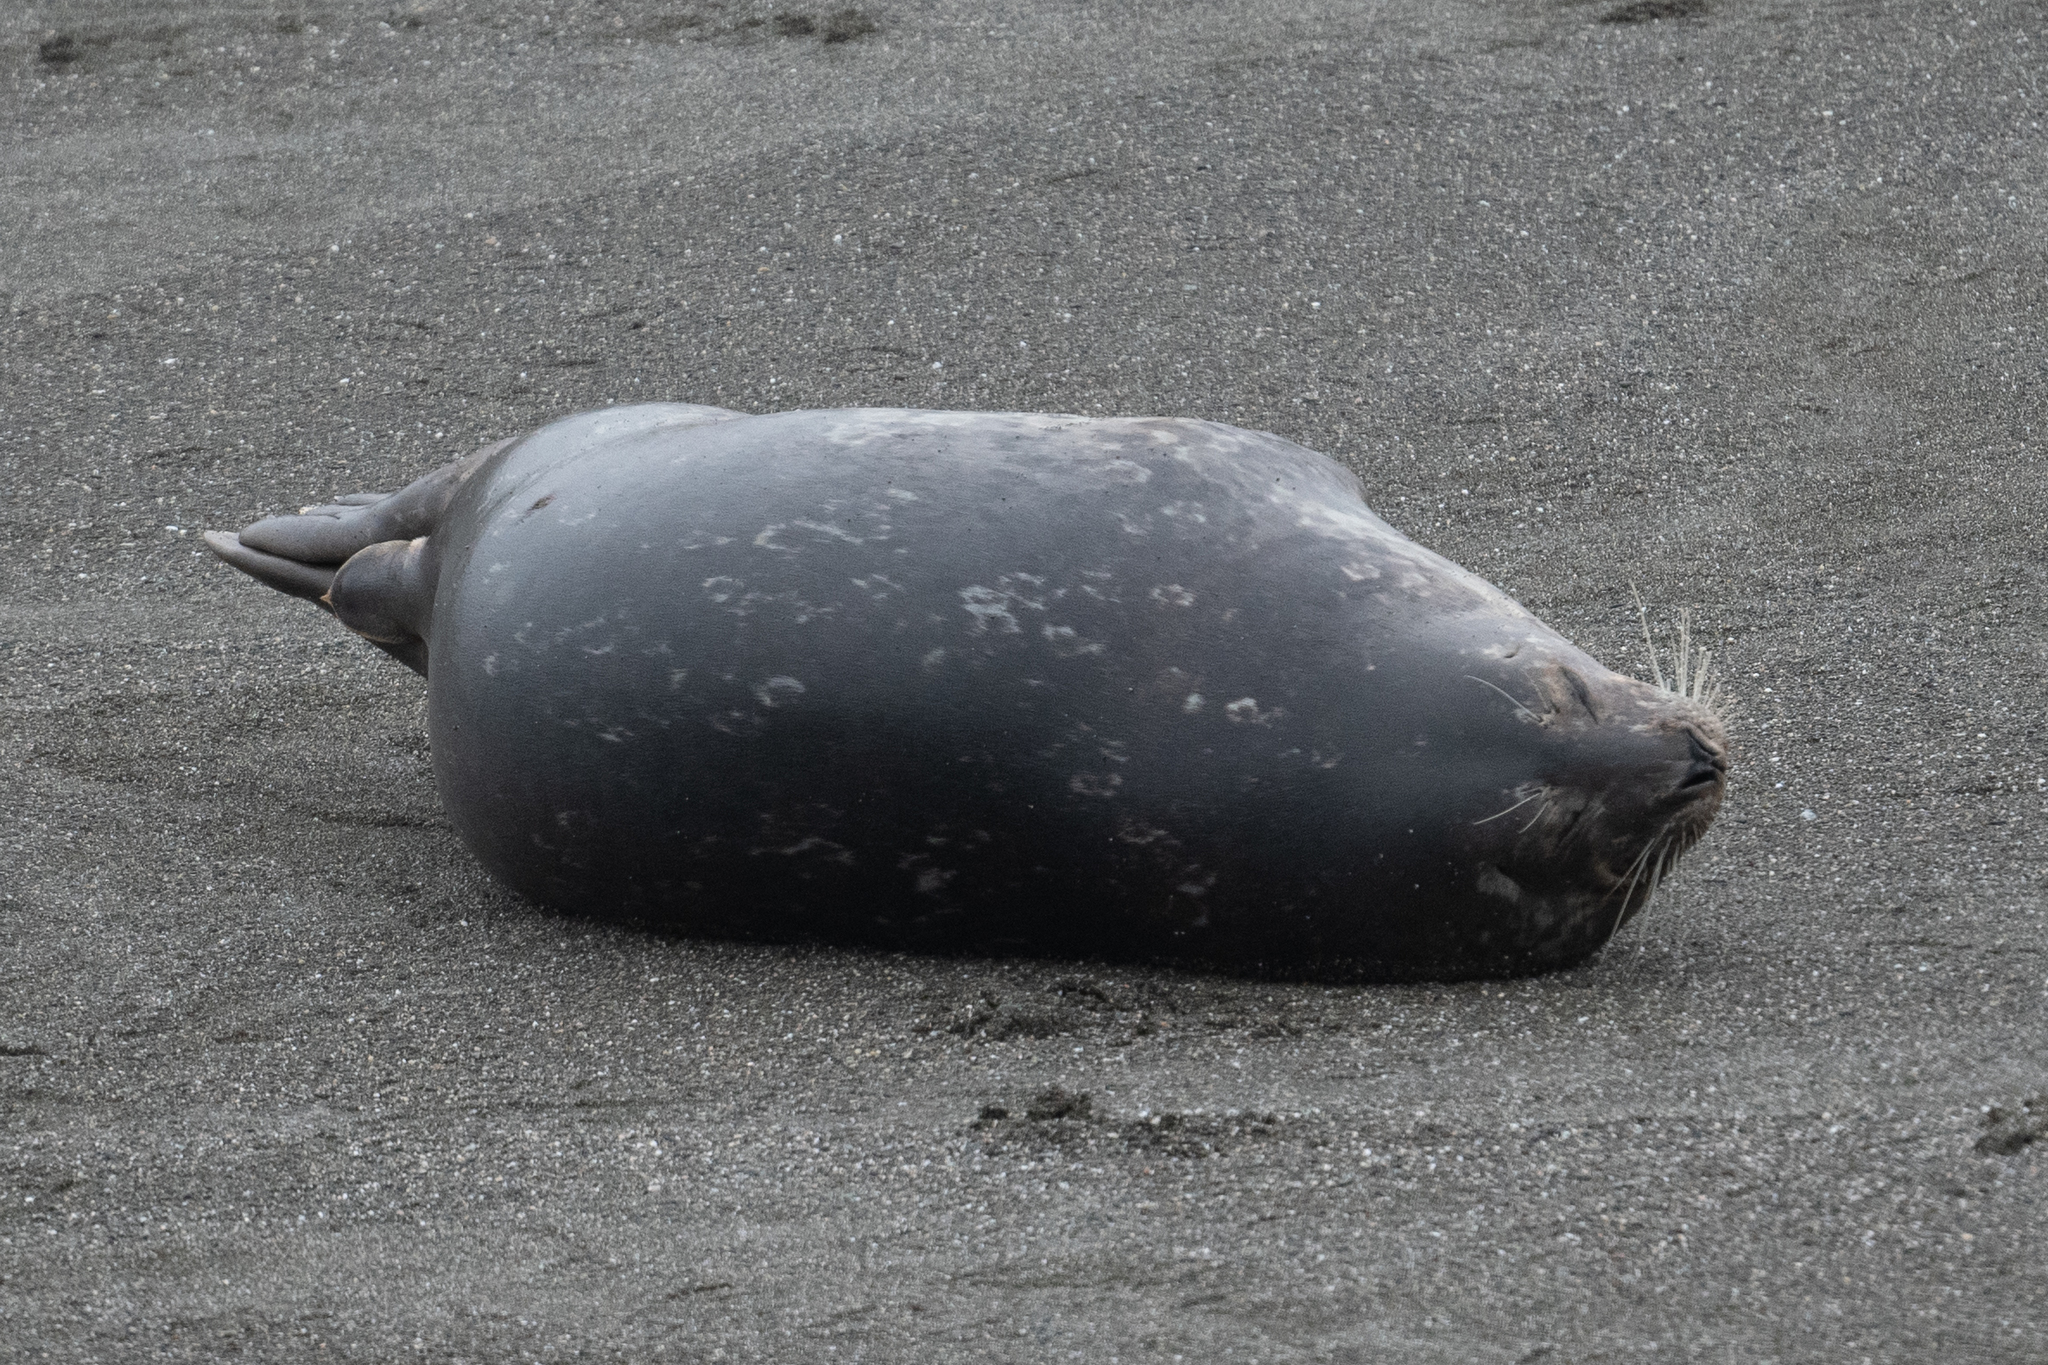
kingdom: Animalia
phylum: Chordata
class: Mammalia
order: Carnivora
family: Phocidae
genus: Phoca
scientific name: Phoca vitulina
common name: Harbor seal
